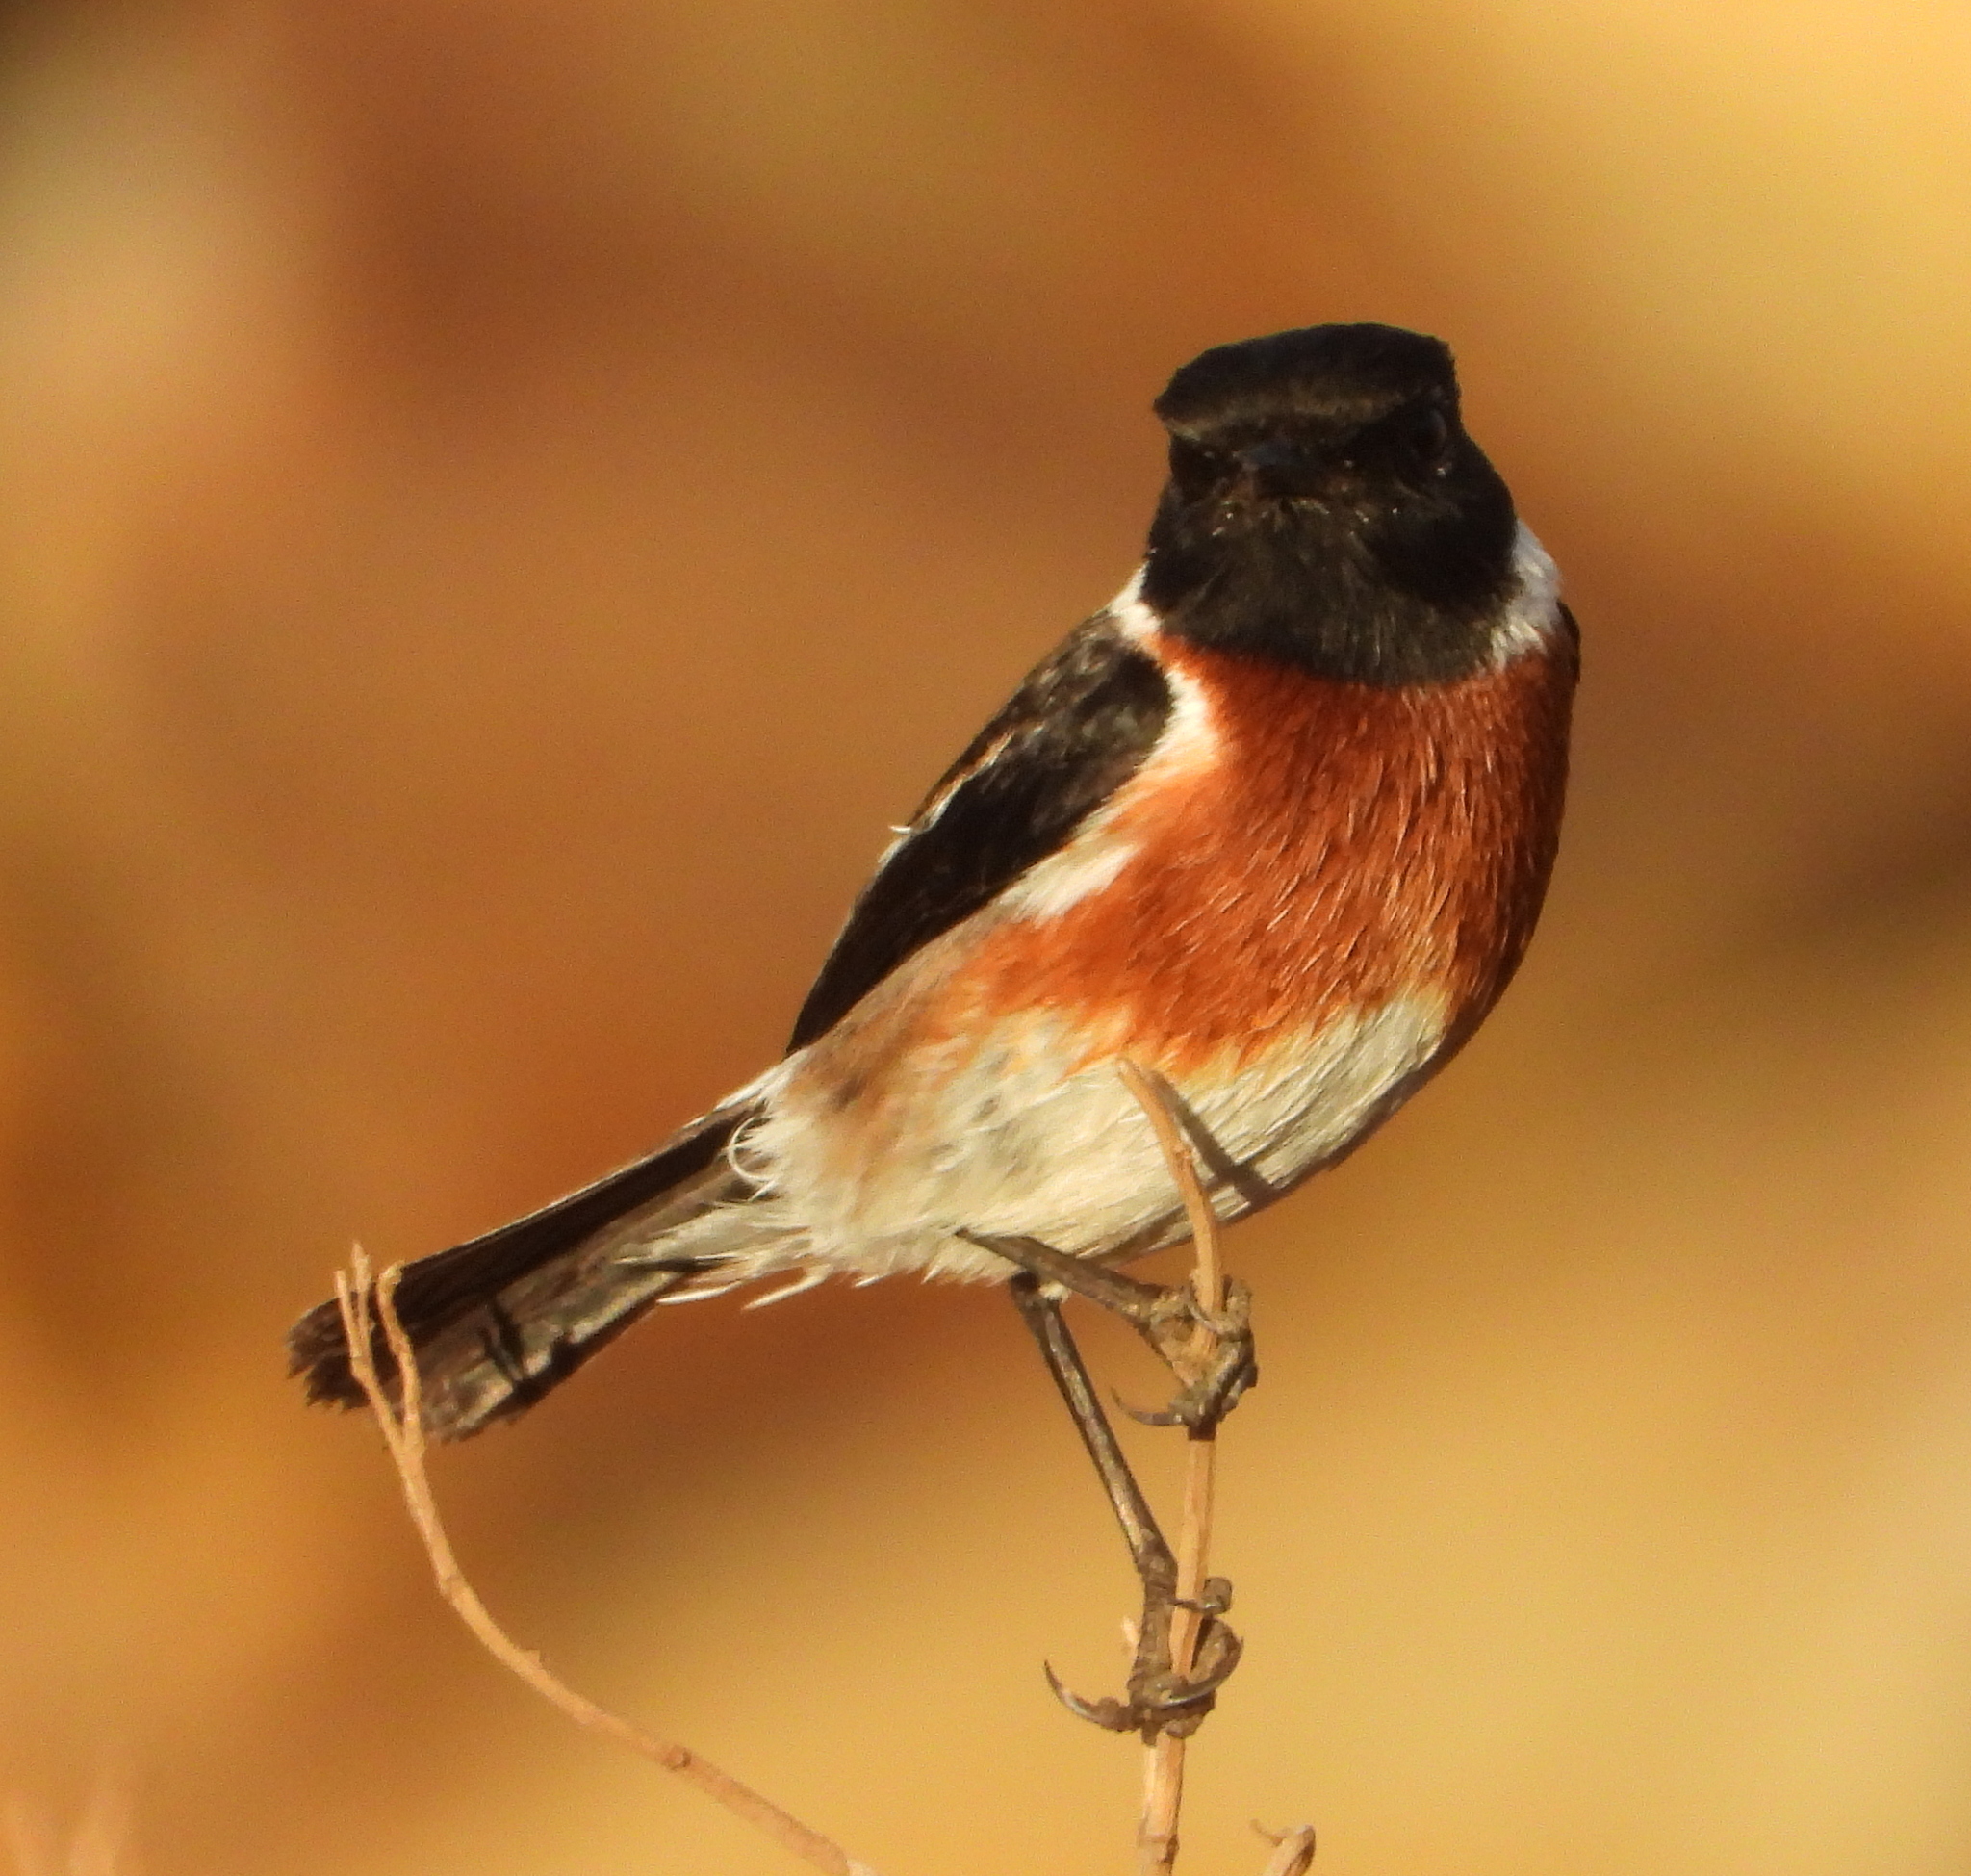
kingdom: Animalia
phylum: Chordata
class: Aves
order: Passeriformes
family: Muscicapidae
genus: Saxicola
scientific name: Saxicola torquatus
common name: African stonechat
